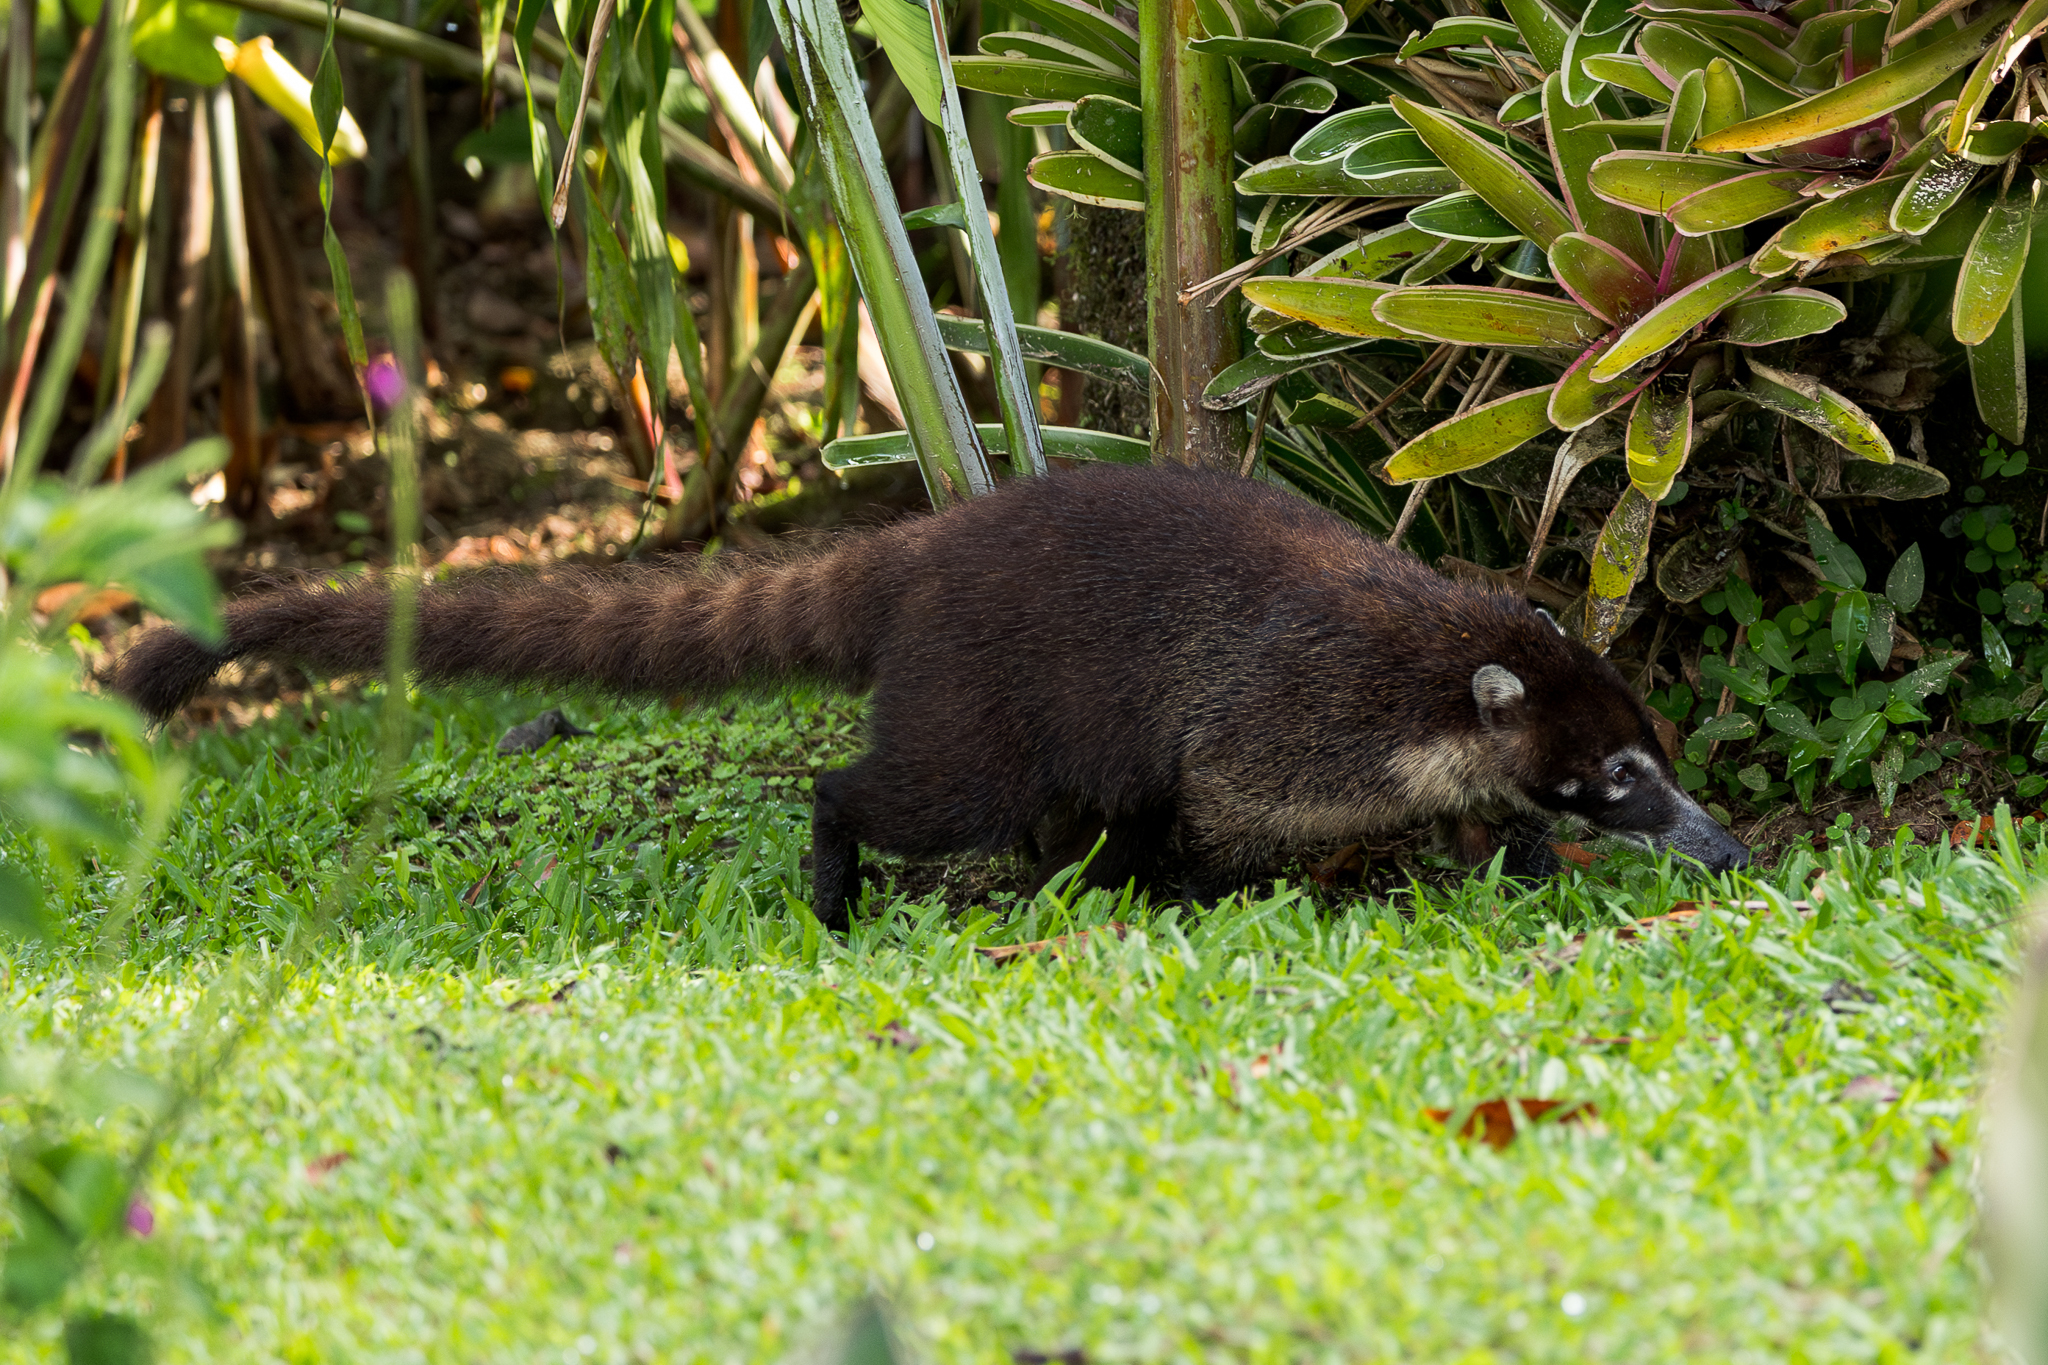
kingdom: Animalia
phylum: Chordata
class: Mammalia
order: Carnivora
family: Procyonidae
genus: Nasua
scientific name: Nasua narica
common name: White-nosed coati
